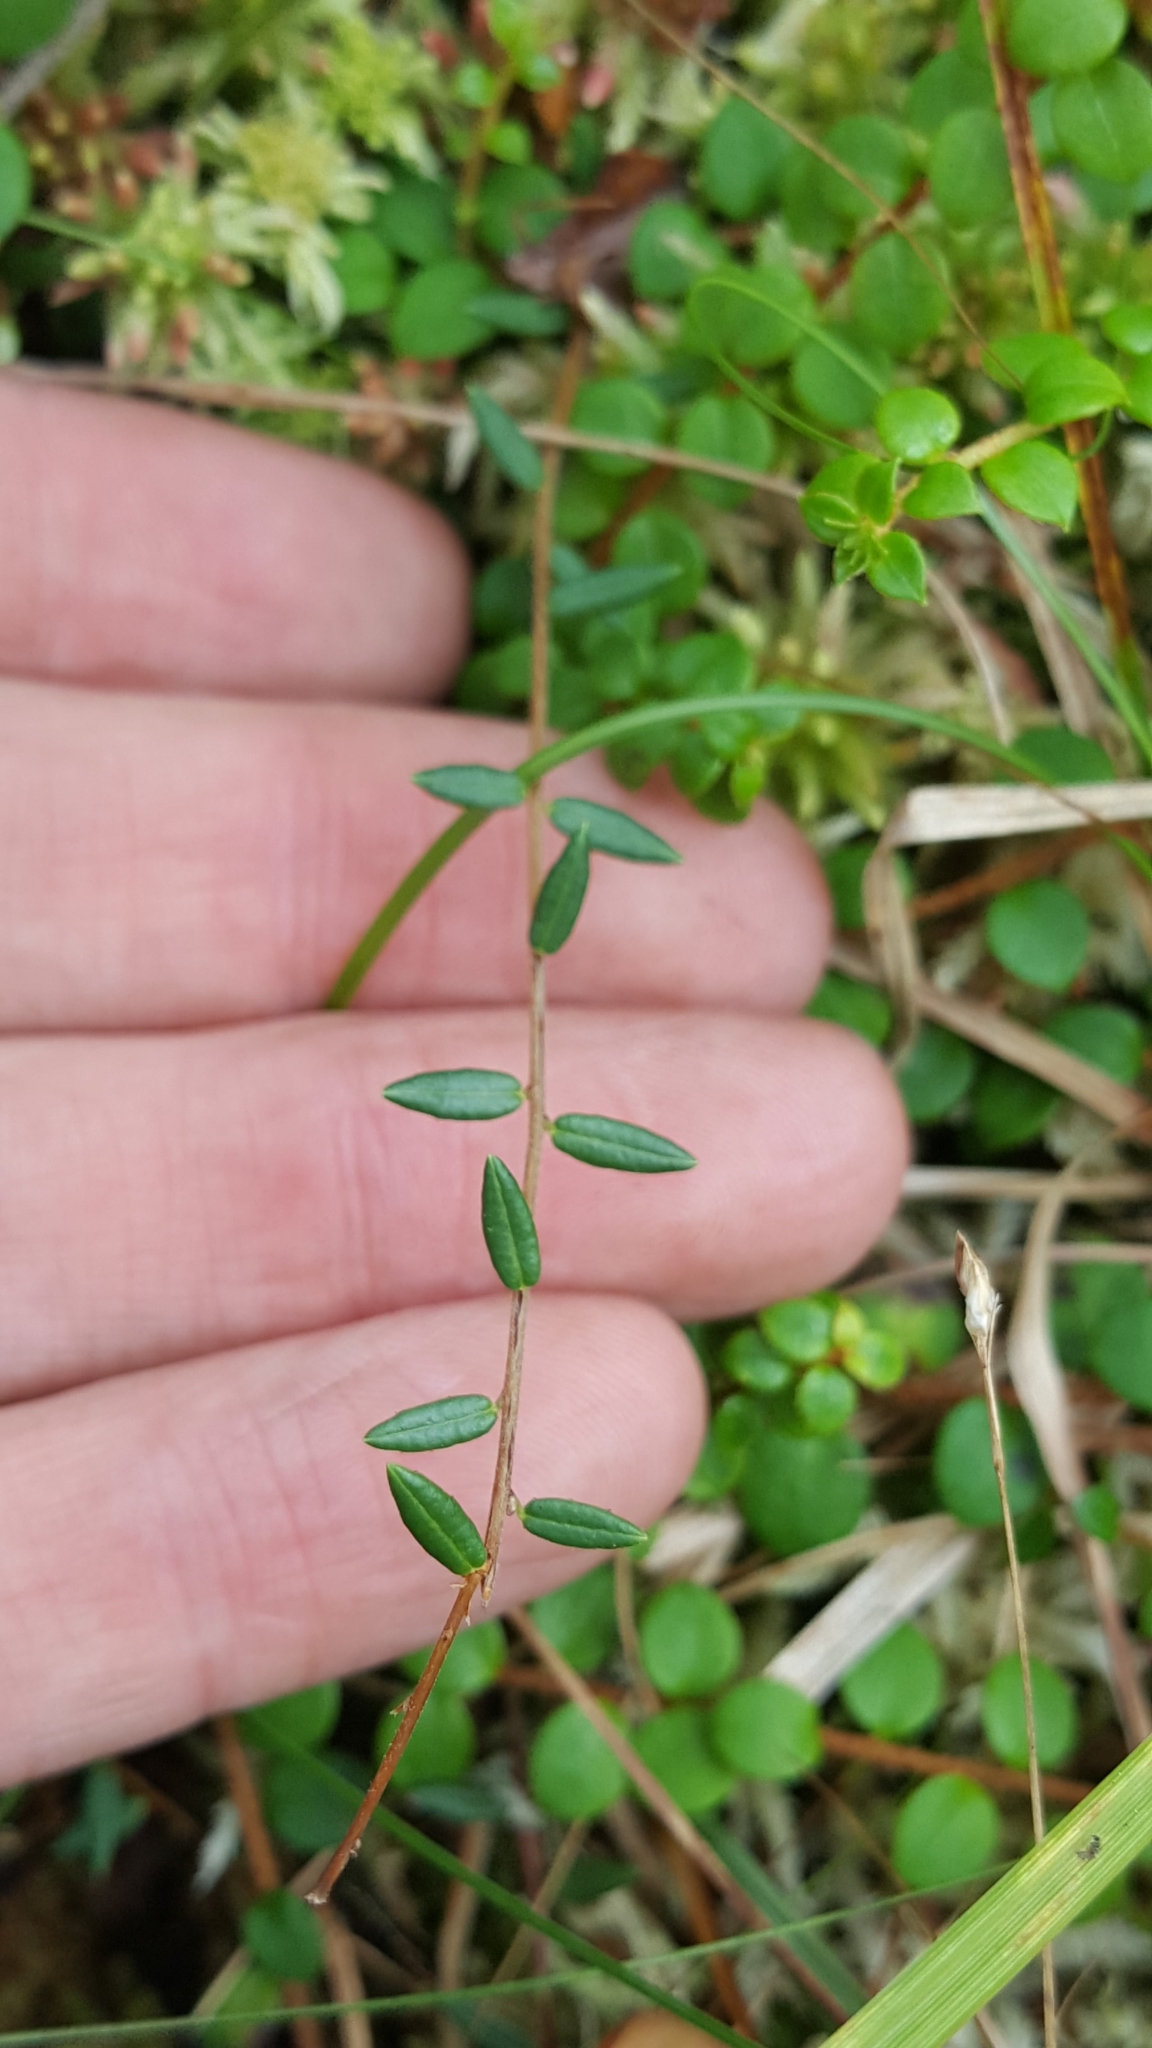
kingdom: Plantae
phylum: Tracheophyta
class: Magnoliopsida
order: Ericales
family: Ericaceae
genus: Vaccinium
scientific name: Vaccinium oxycoccos
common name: Cranberry
